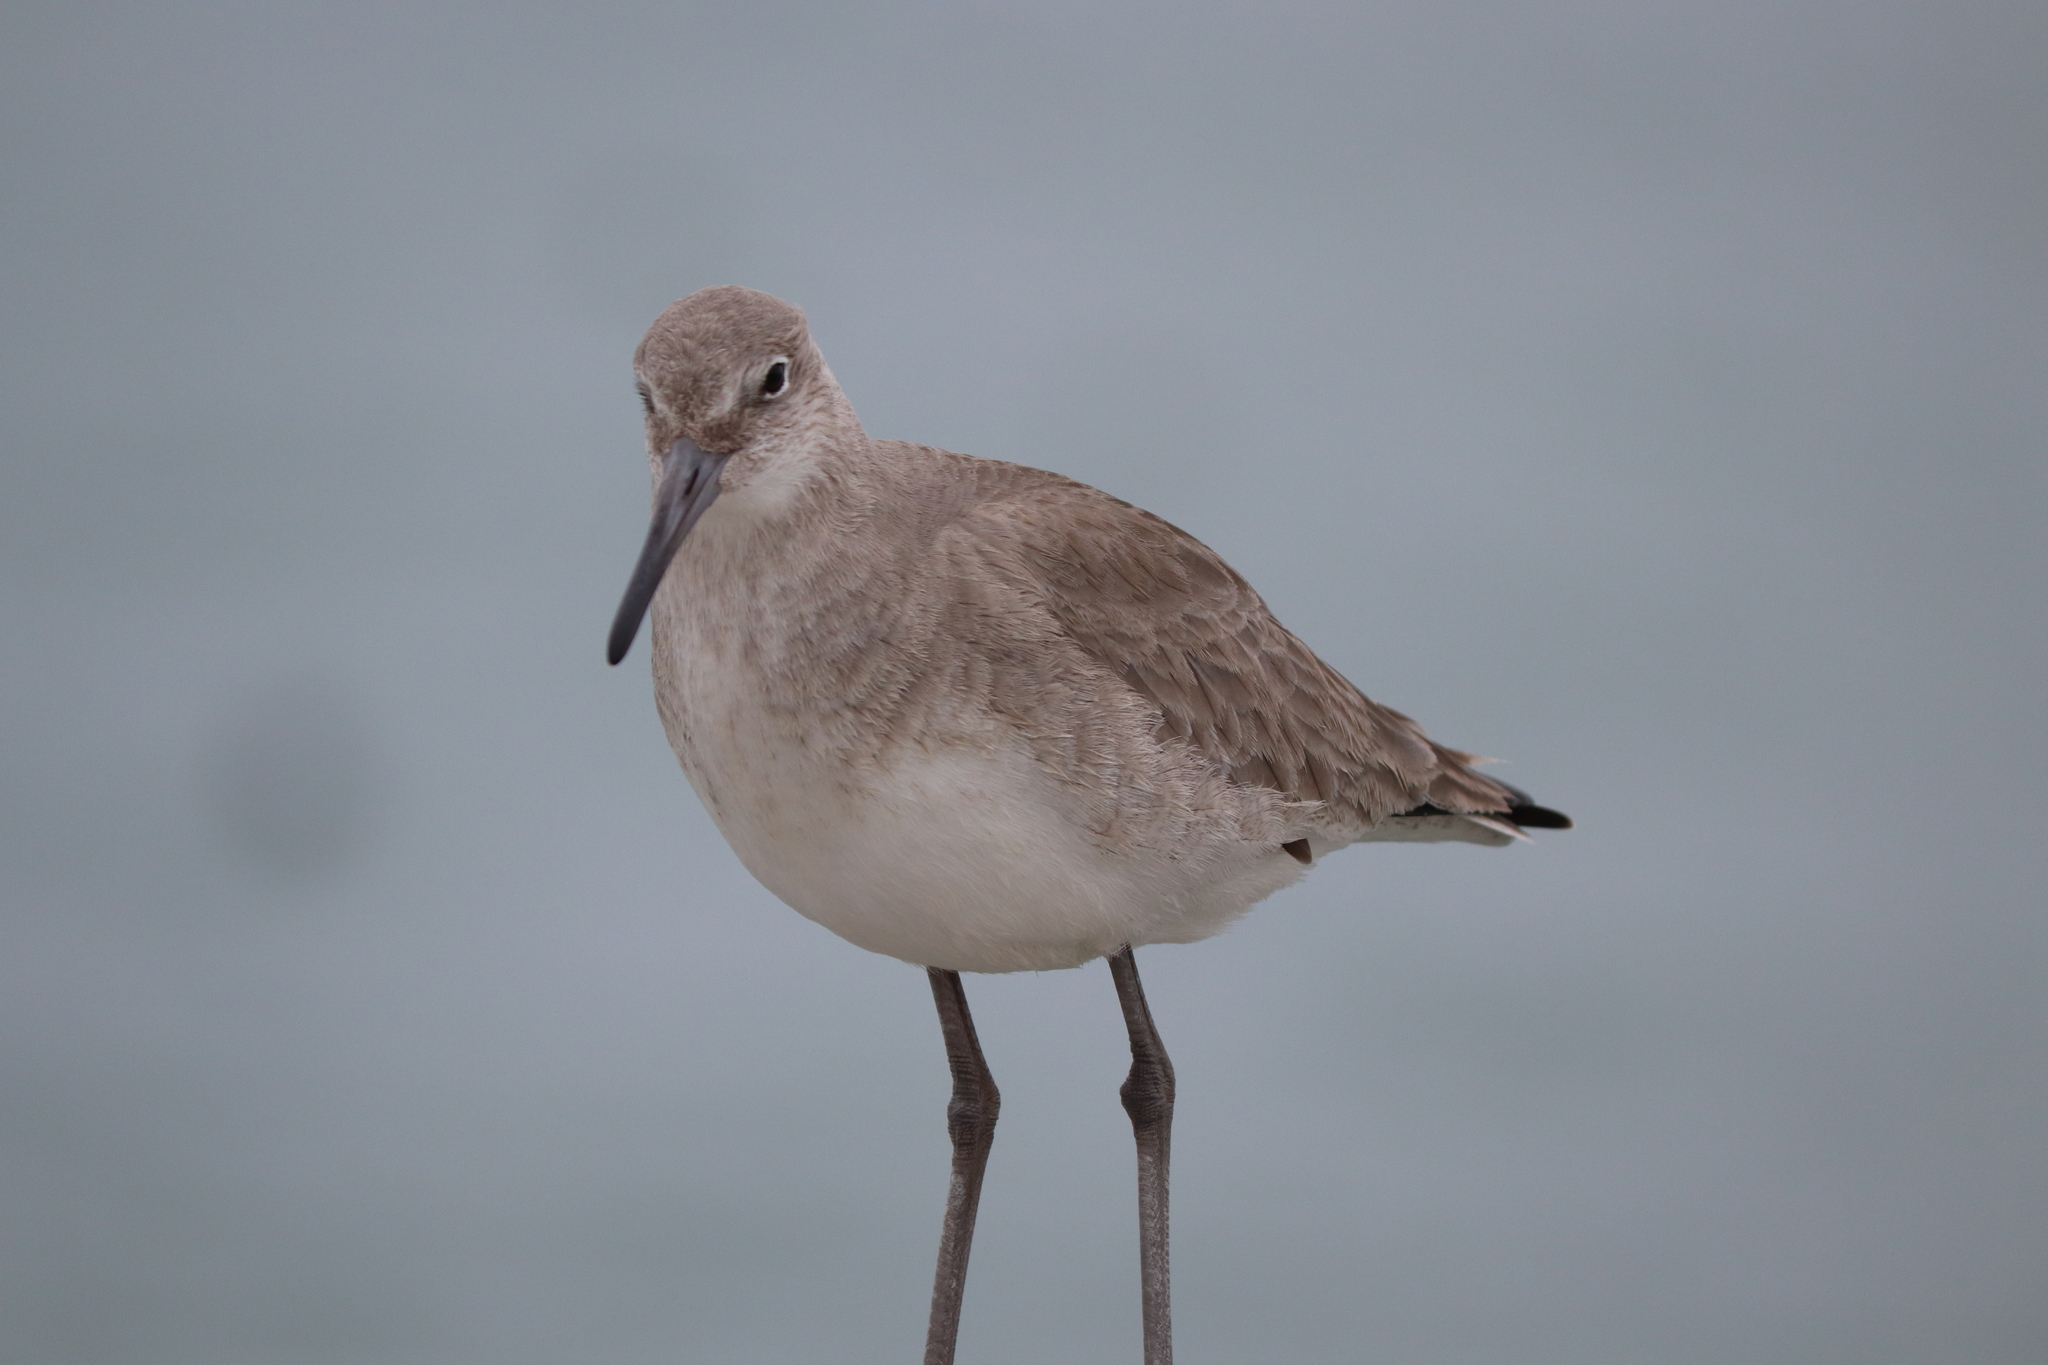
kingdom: Animalia
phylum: Chordata
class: Aves
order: Charadriiformes
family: Scolopacidae
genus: Tringa
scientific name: Tringa semipalmata
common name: Willet
